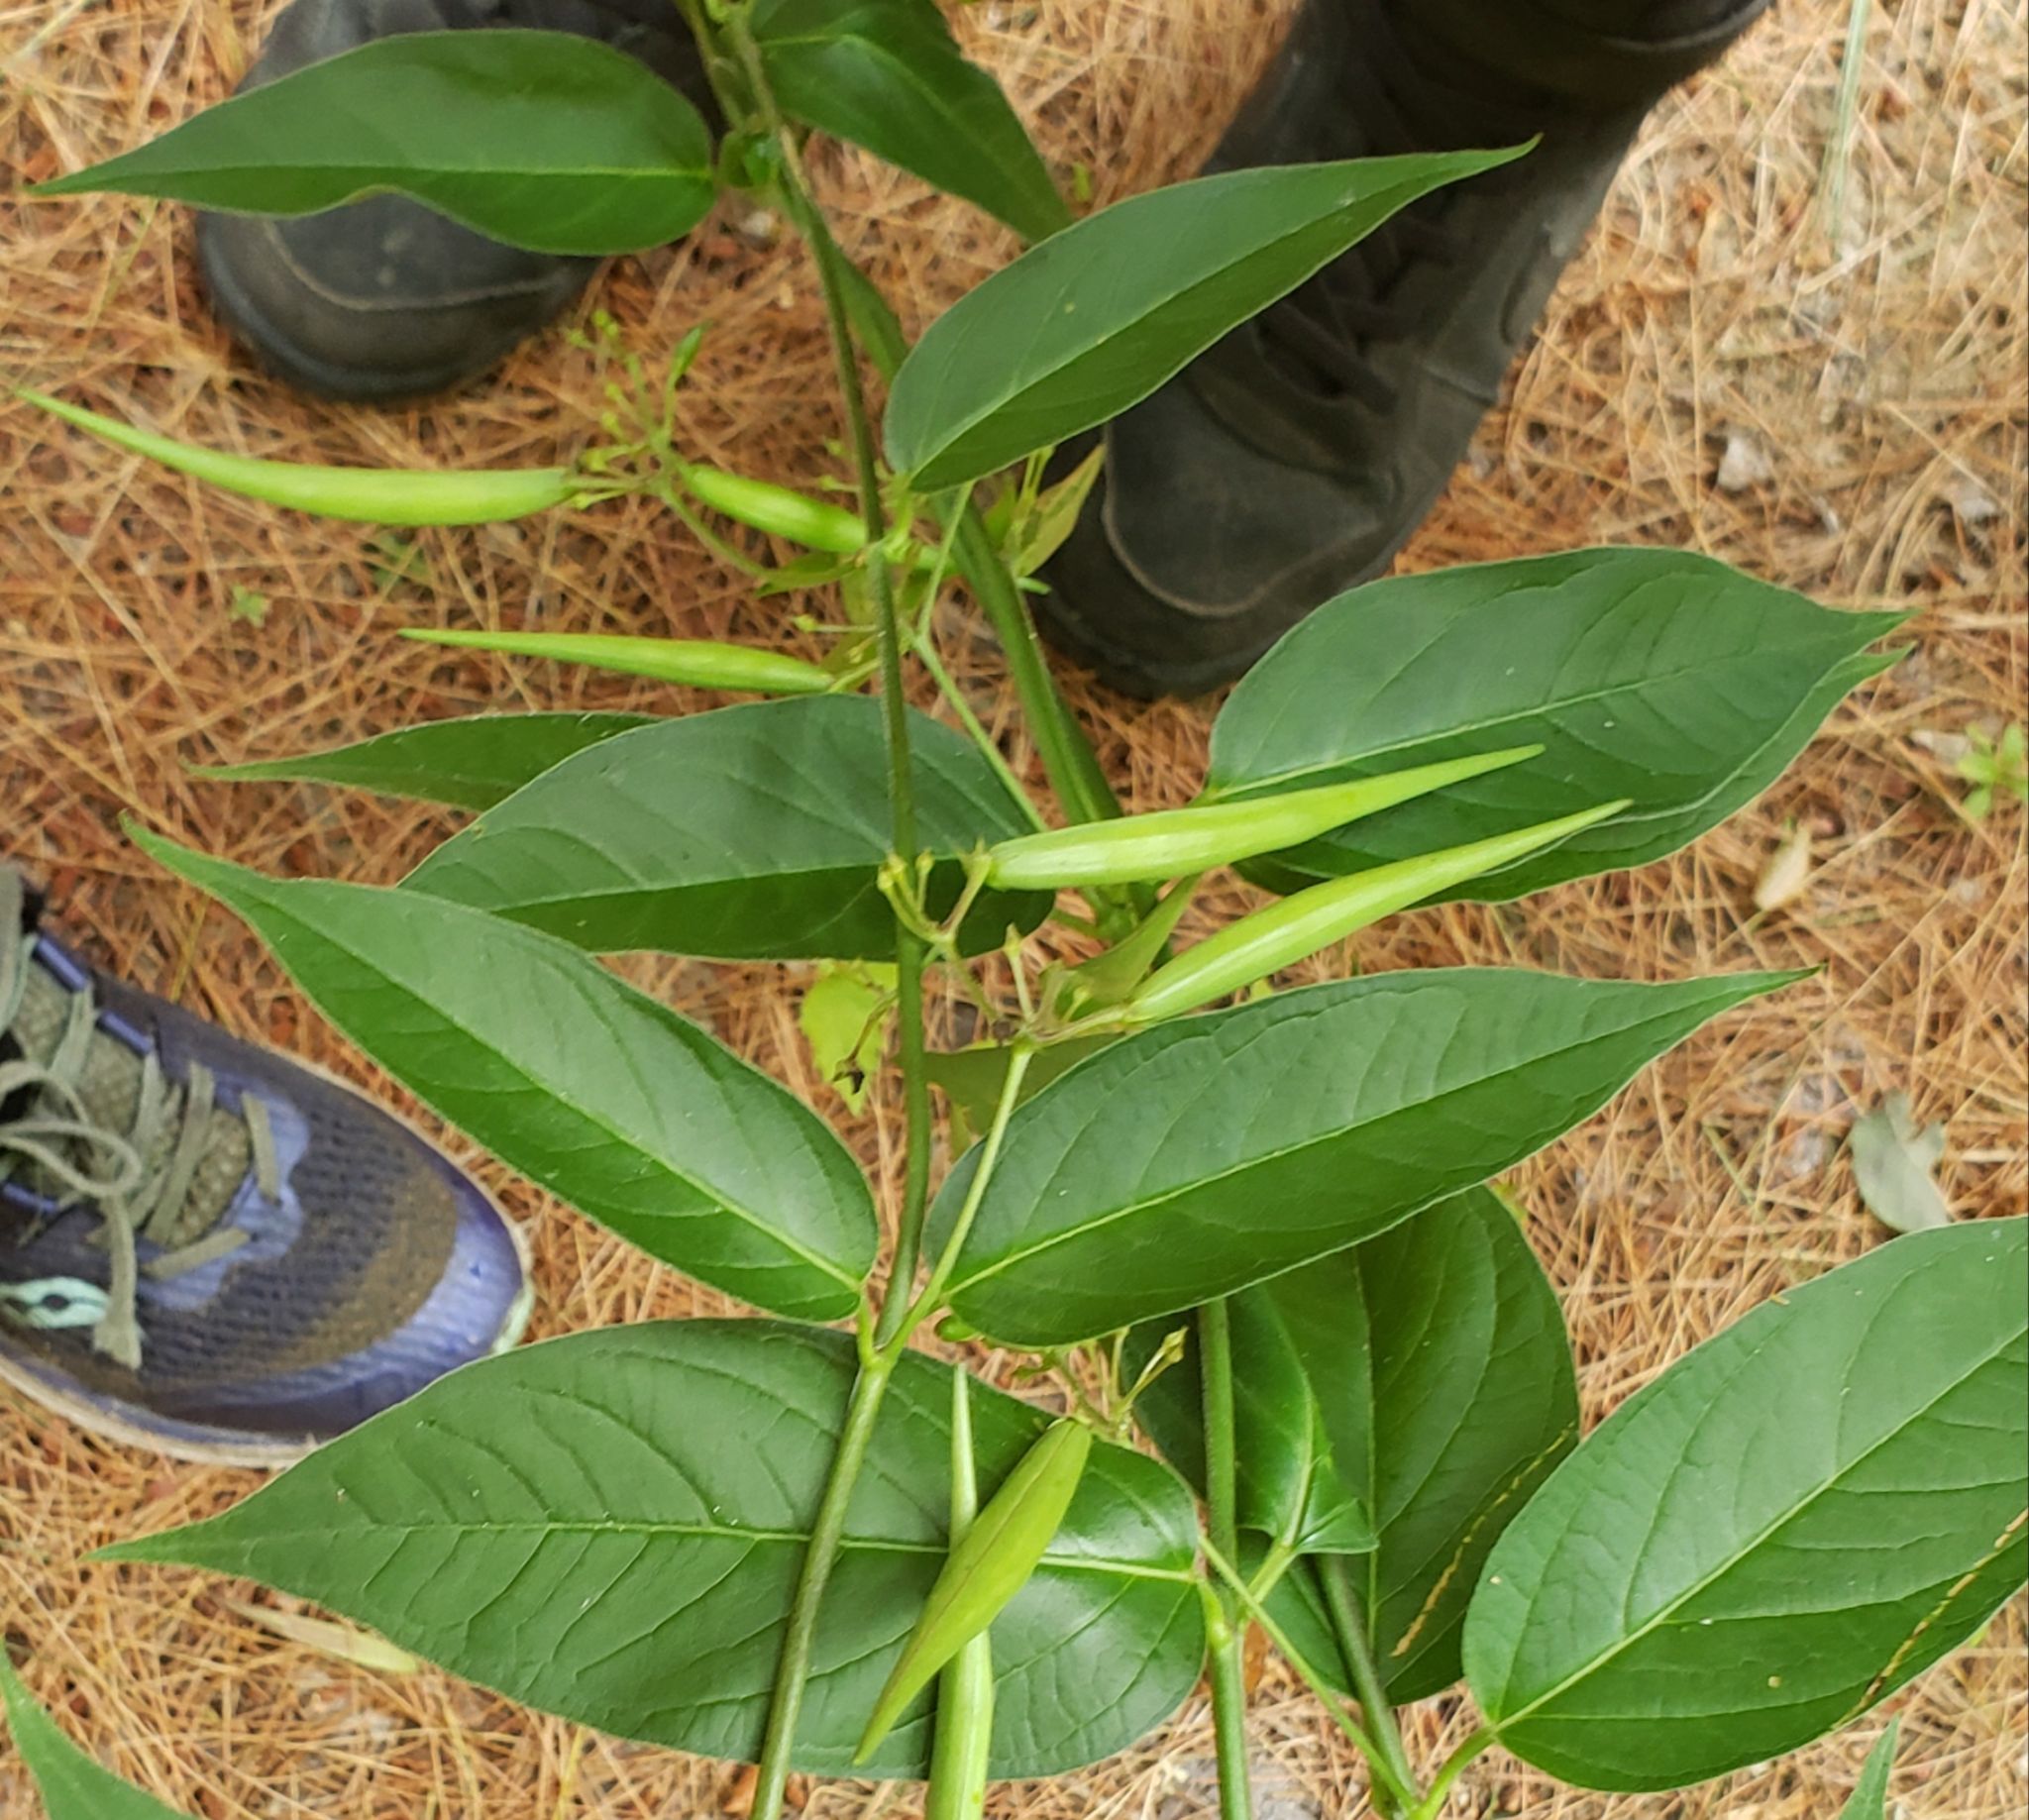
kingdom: Plantae
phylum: Tracheophyta
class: Magnoliopsida
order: Gentianales
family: Apocynaceae
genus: Vincetoxicum
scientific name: Vincetoxicum rossicum
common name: Dog-strangling vine
